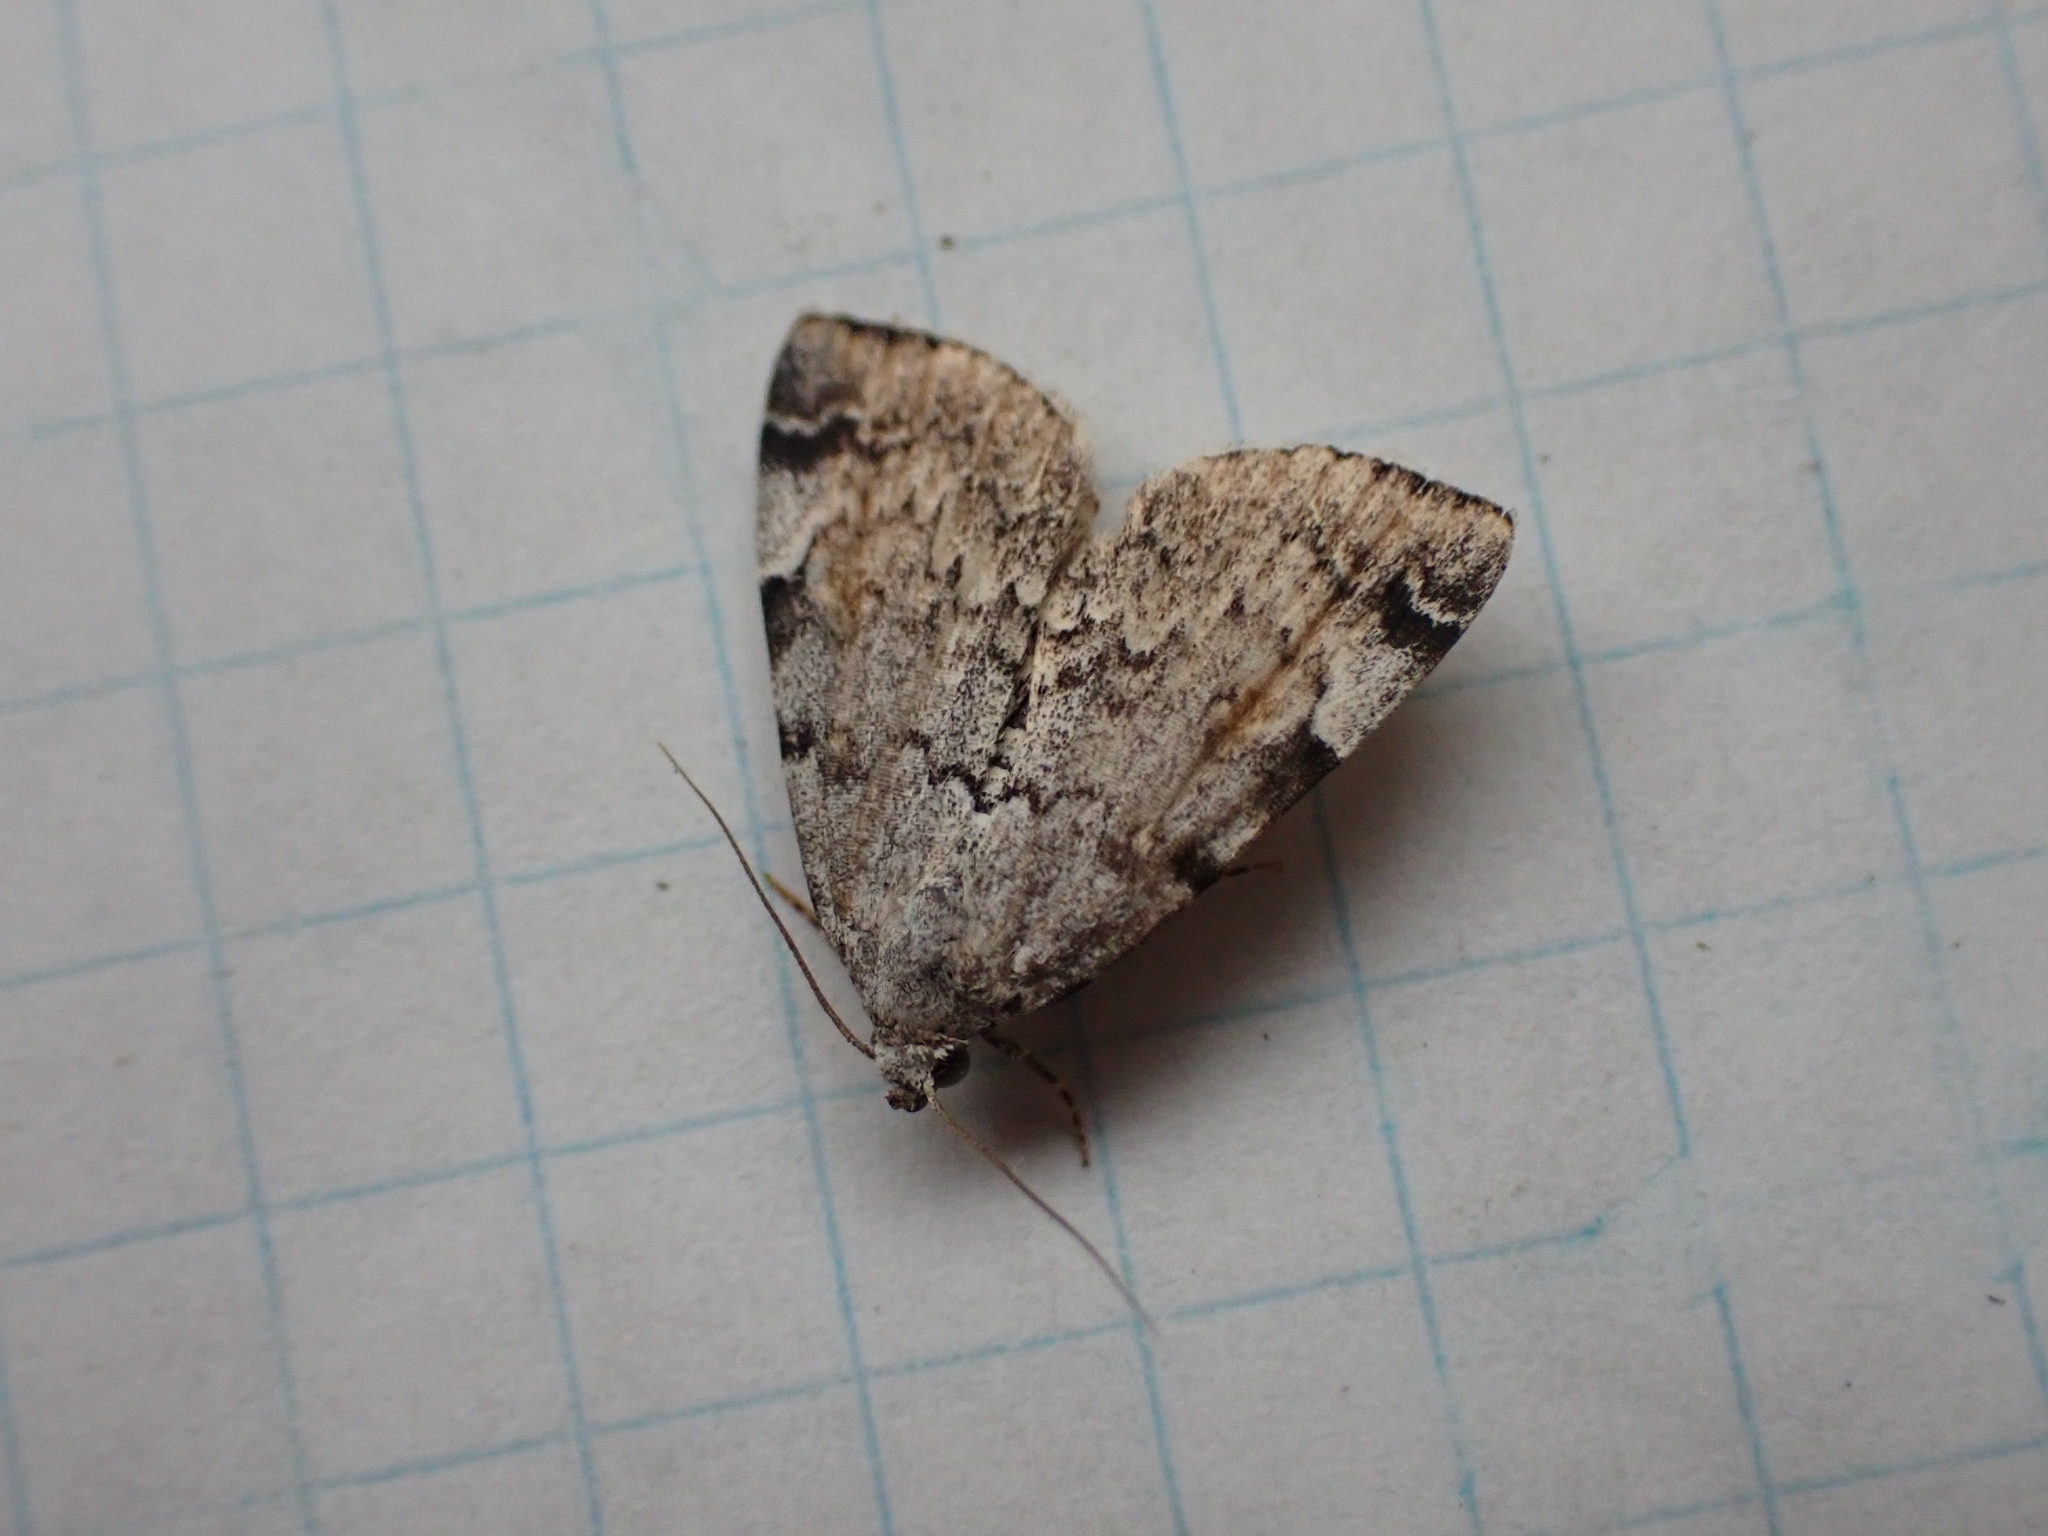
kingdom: Animalia
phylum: Arthropoda
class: Insecta
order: Lepidoptera
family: Erebidae
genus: Idia
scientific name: Idia americalis
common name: American idia moth
